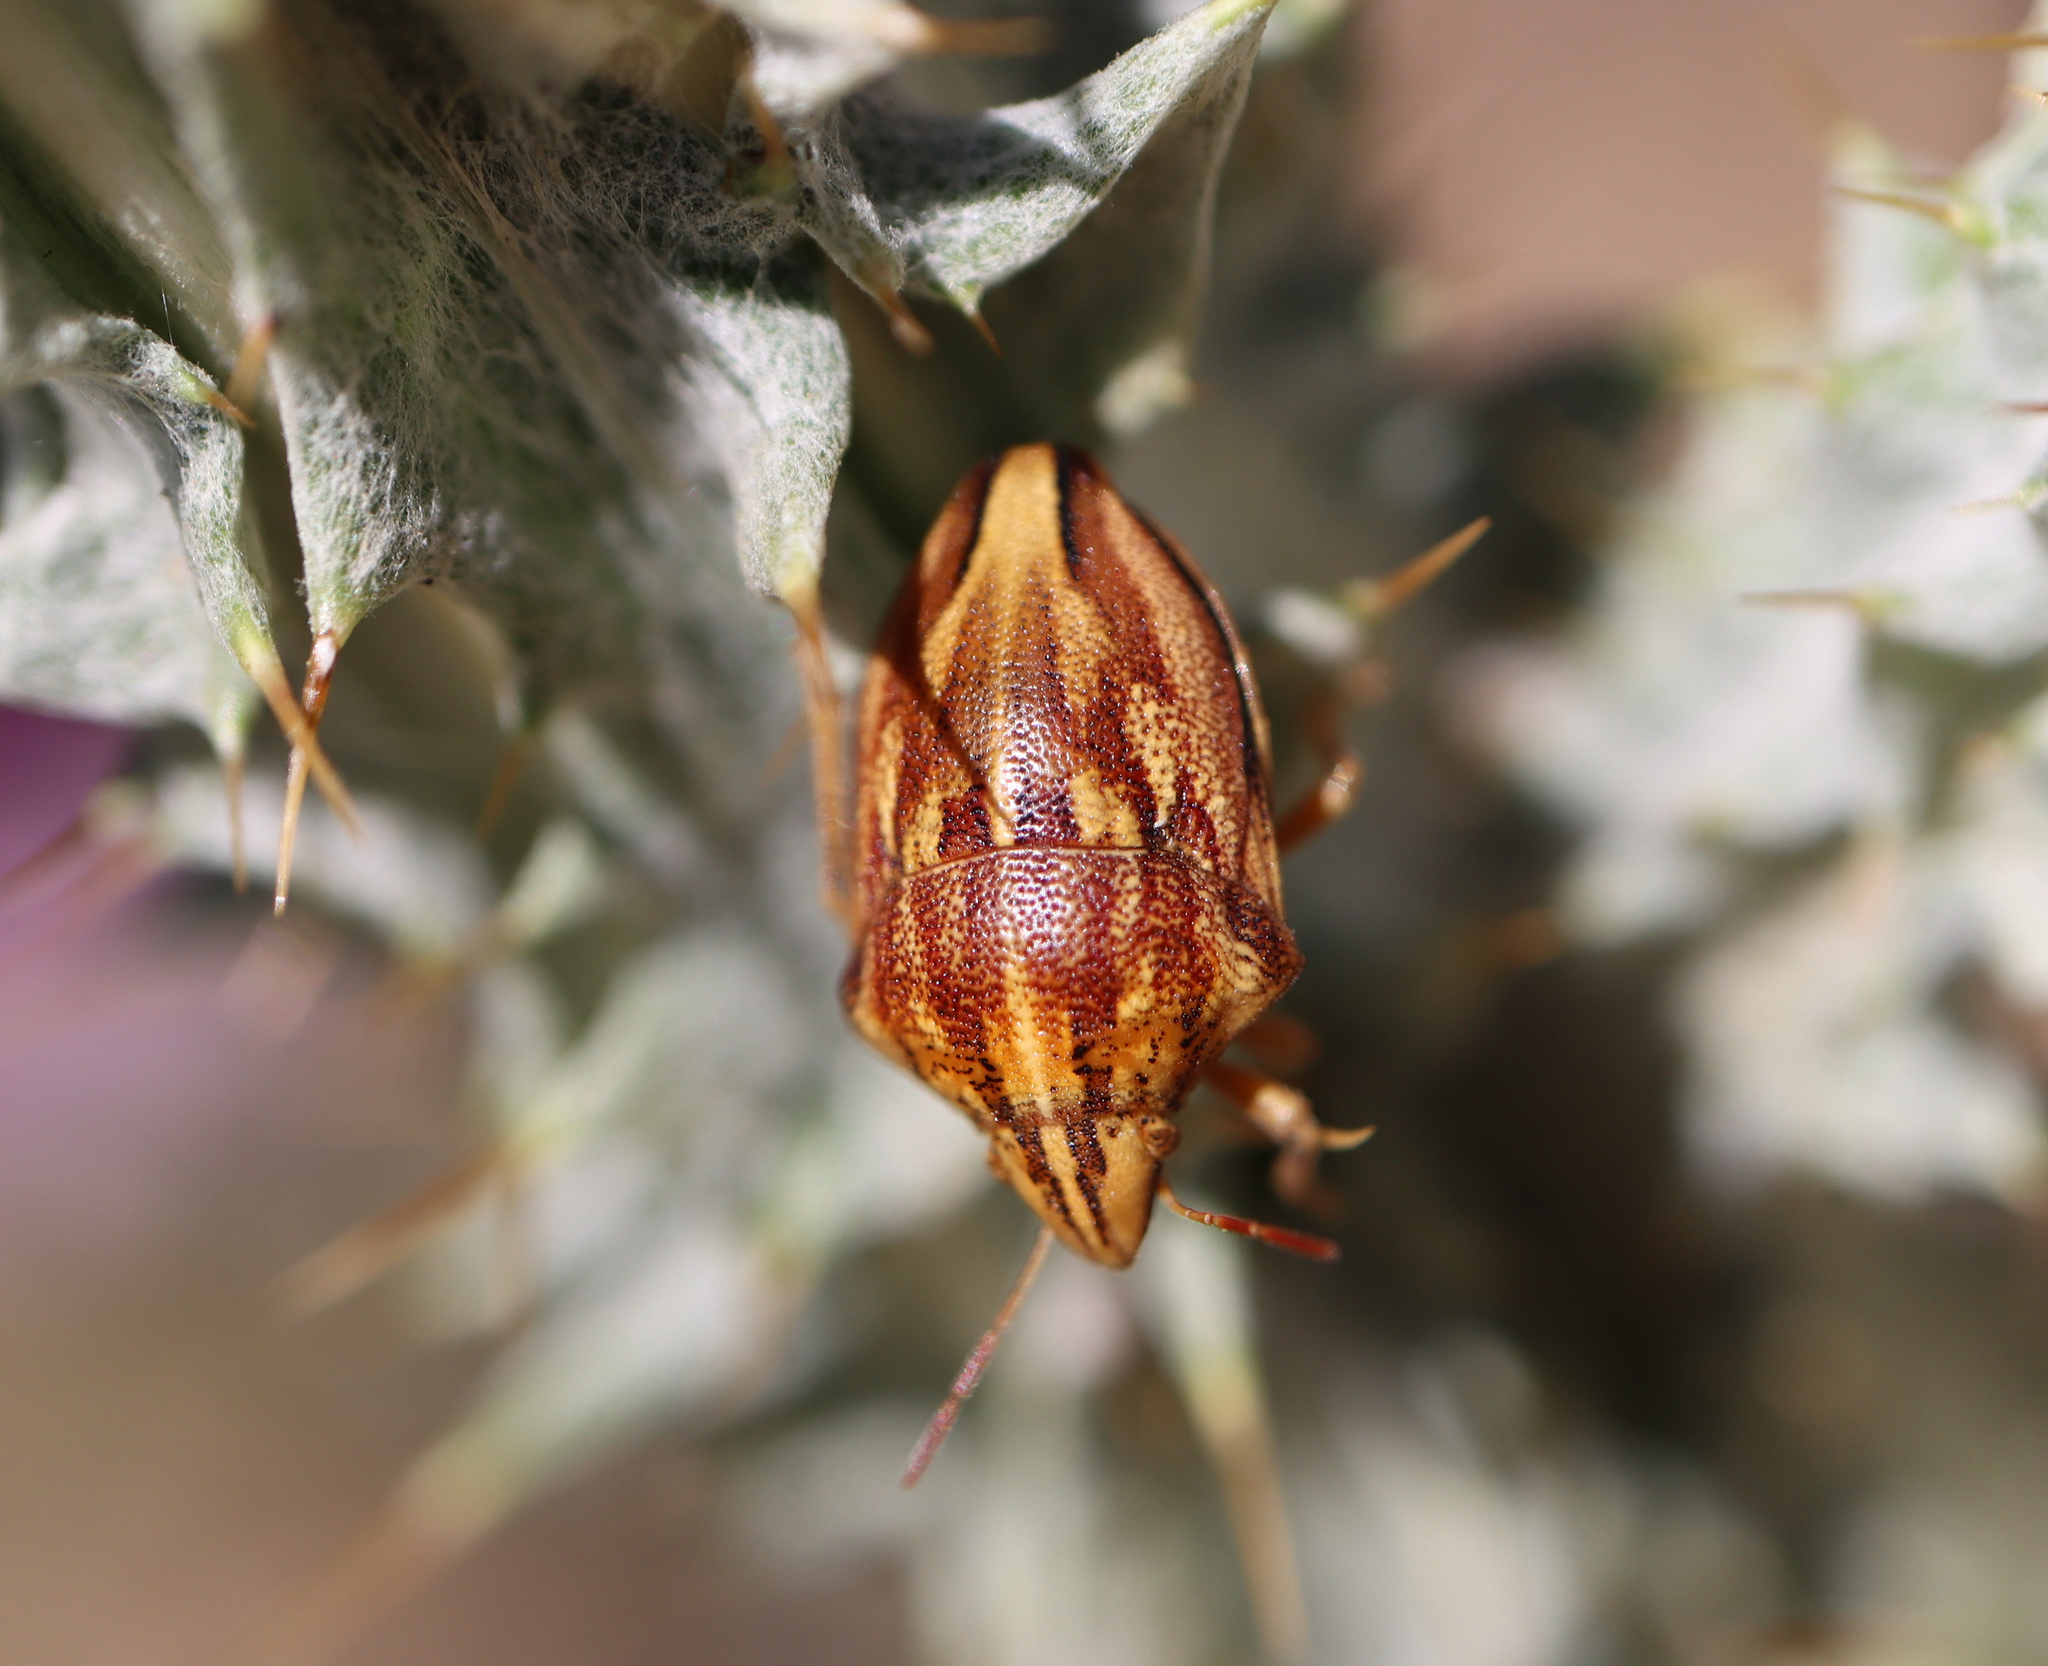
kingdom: Animalia
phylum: Arthropoda
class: Insecta
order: Hemiptera
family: Scutelleridae
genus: Odontotarsus
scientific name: Odontotarsus purpureolineatus
